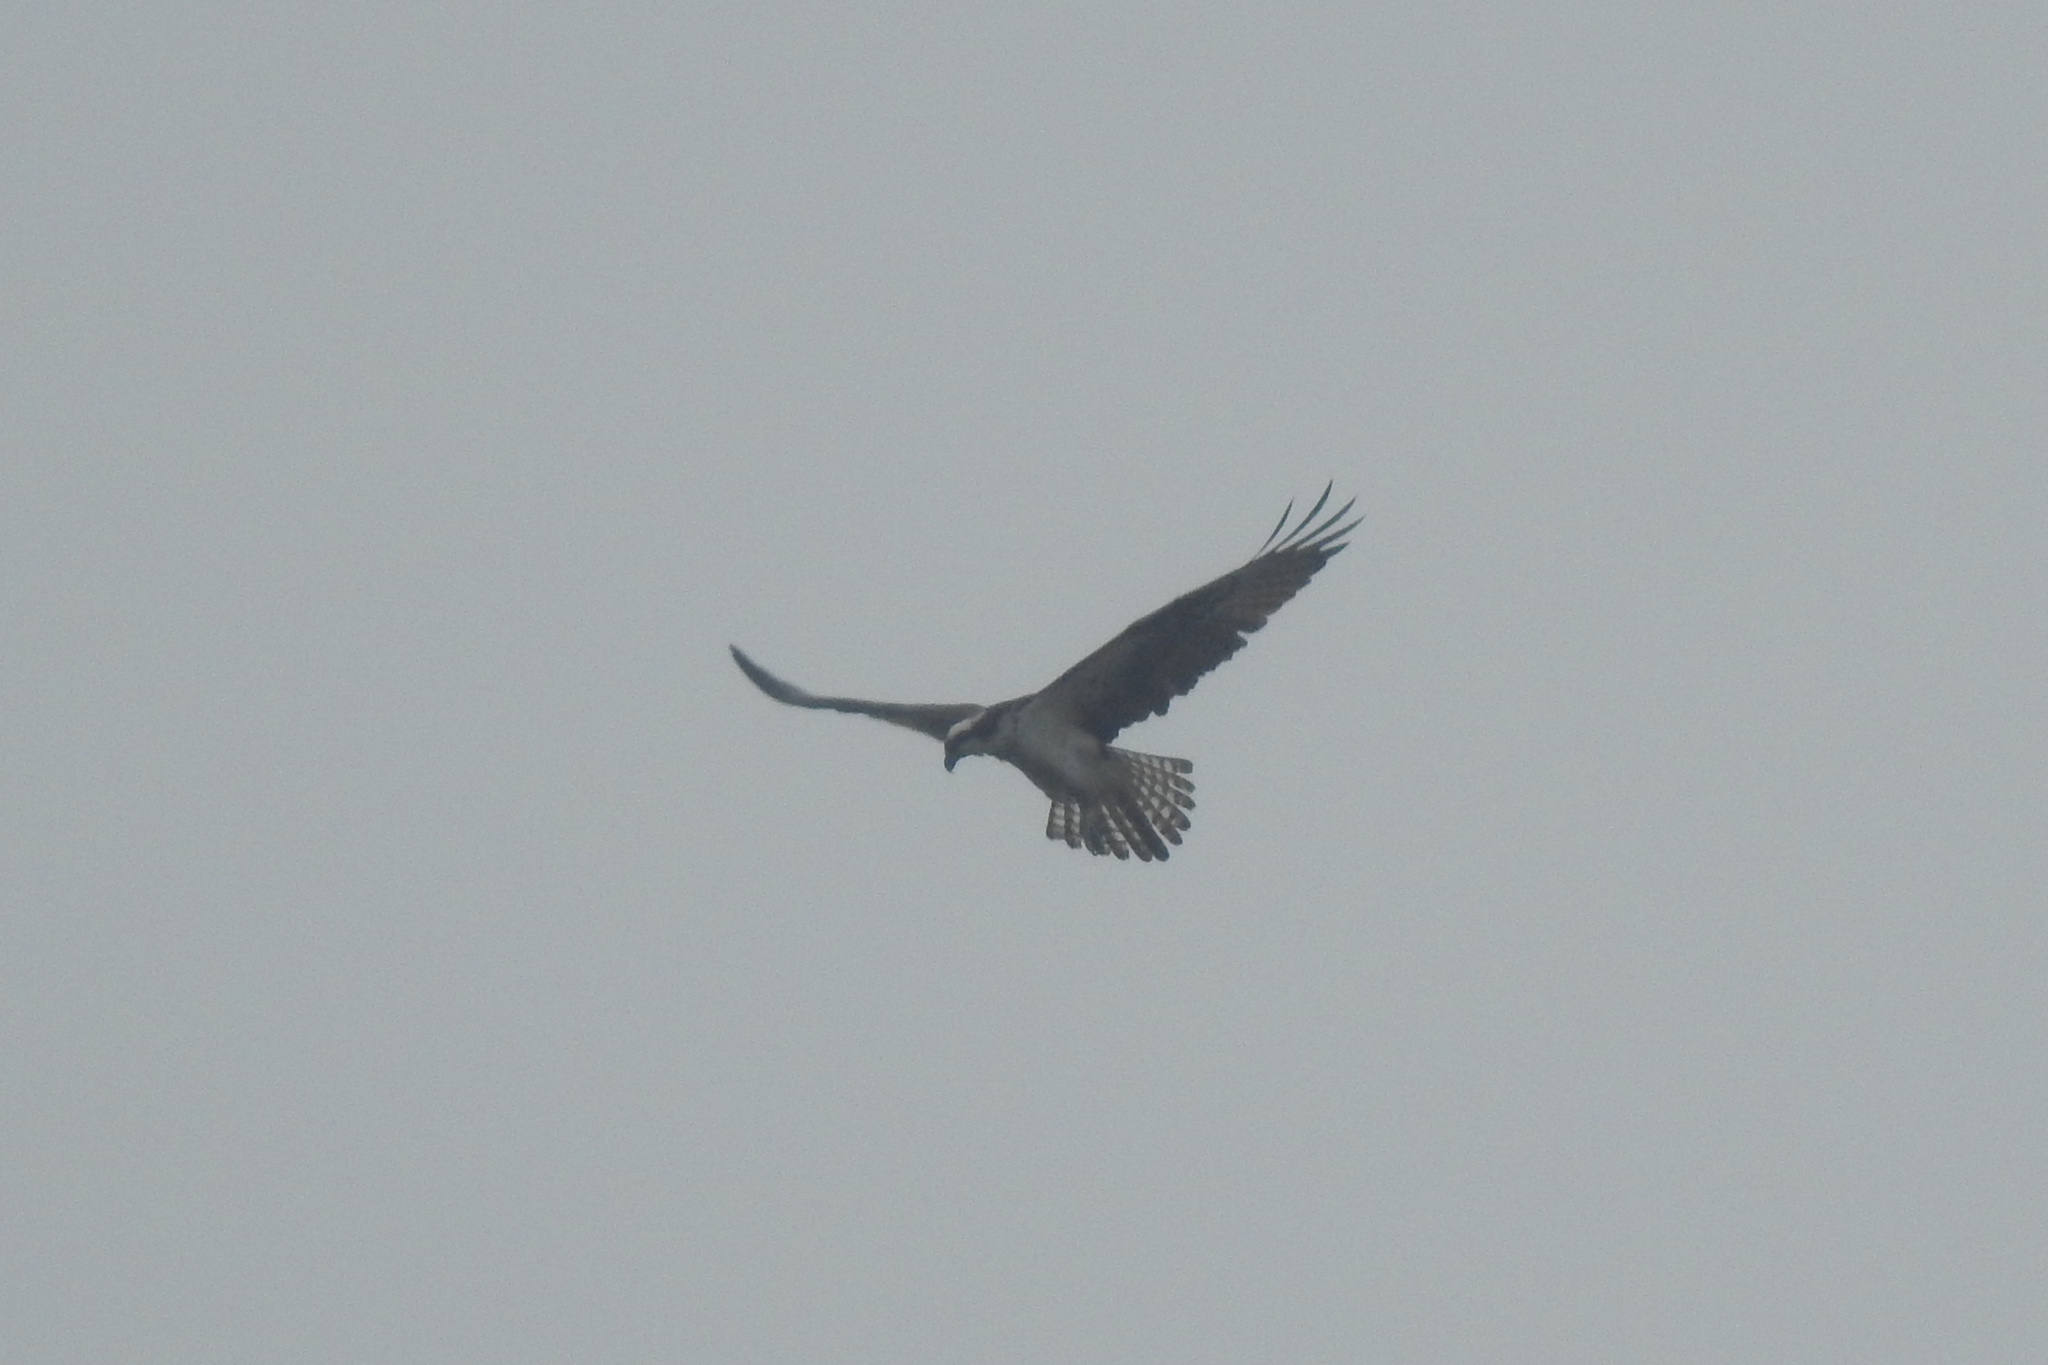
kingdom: Animalia
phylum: Chordata
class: Aves
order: Accipitriformes
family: Pandionidae
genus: Pandion
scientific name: Pandion haliaetus
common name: Osprey
